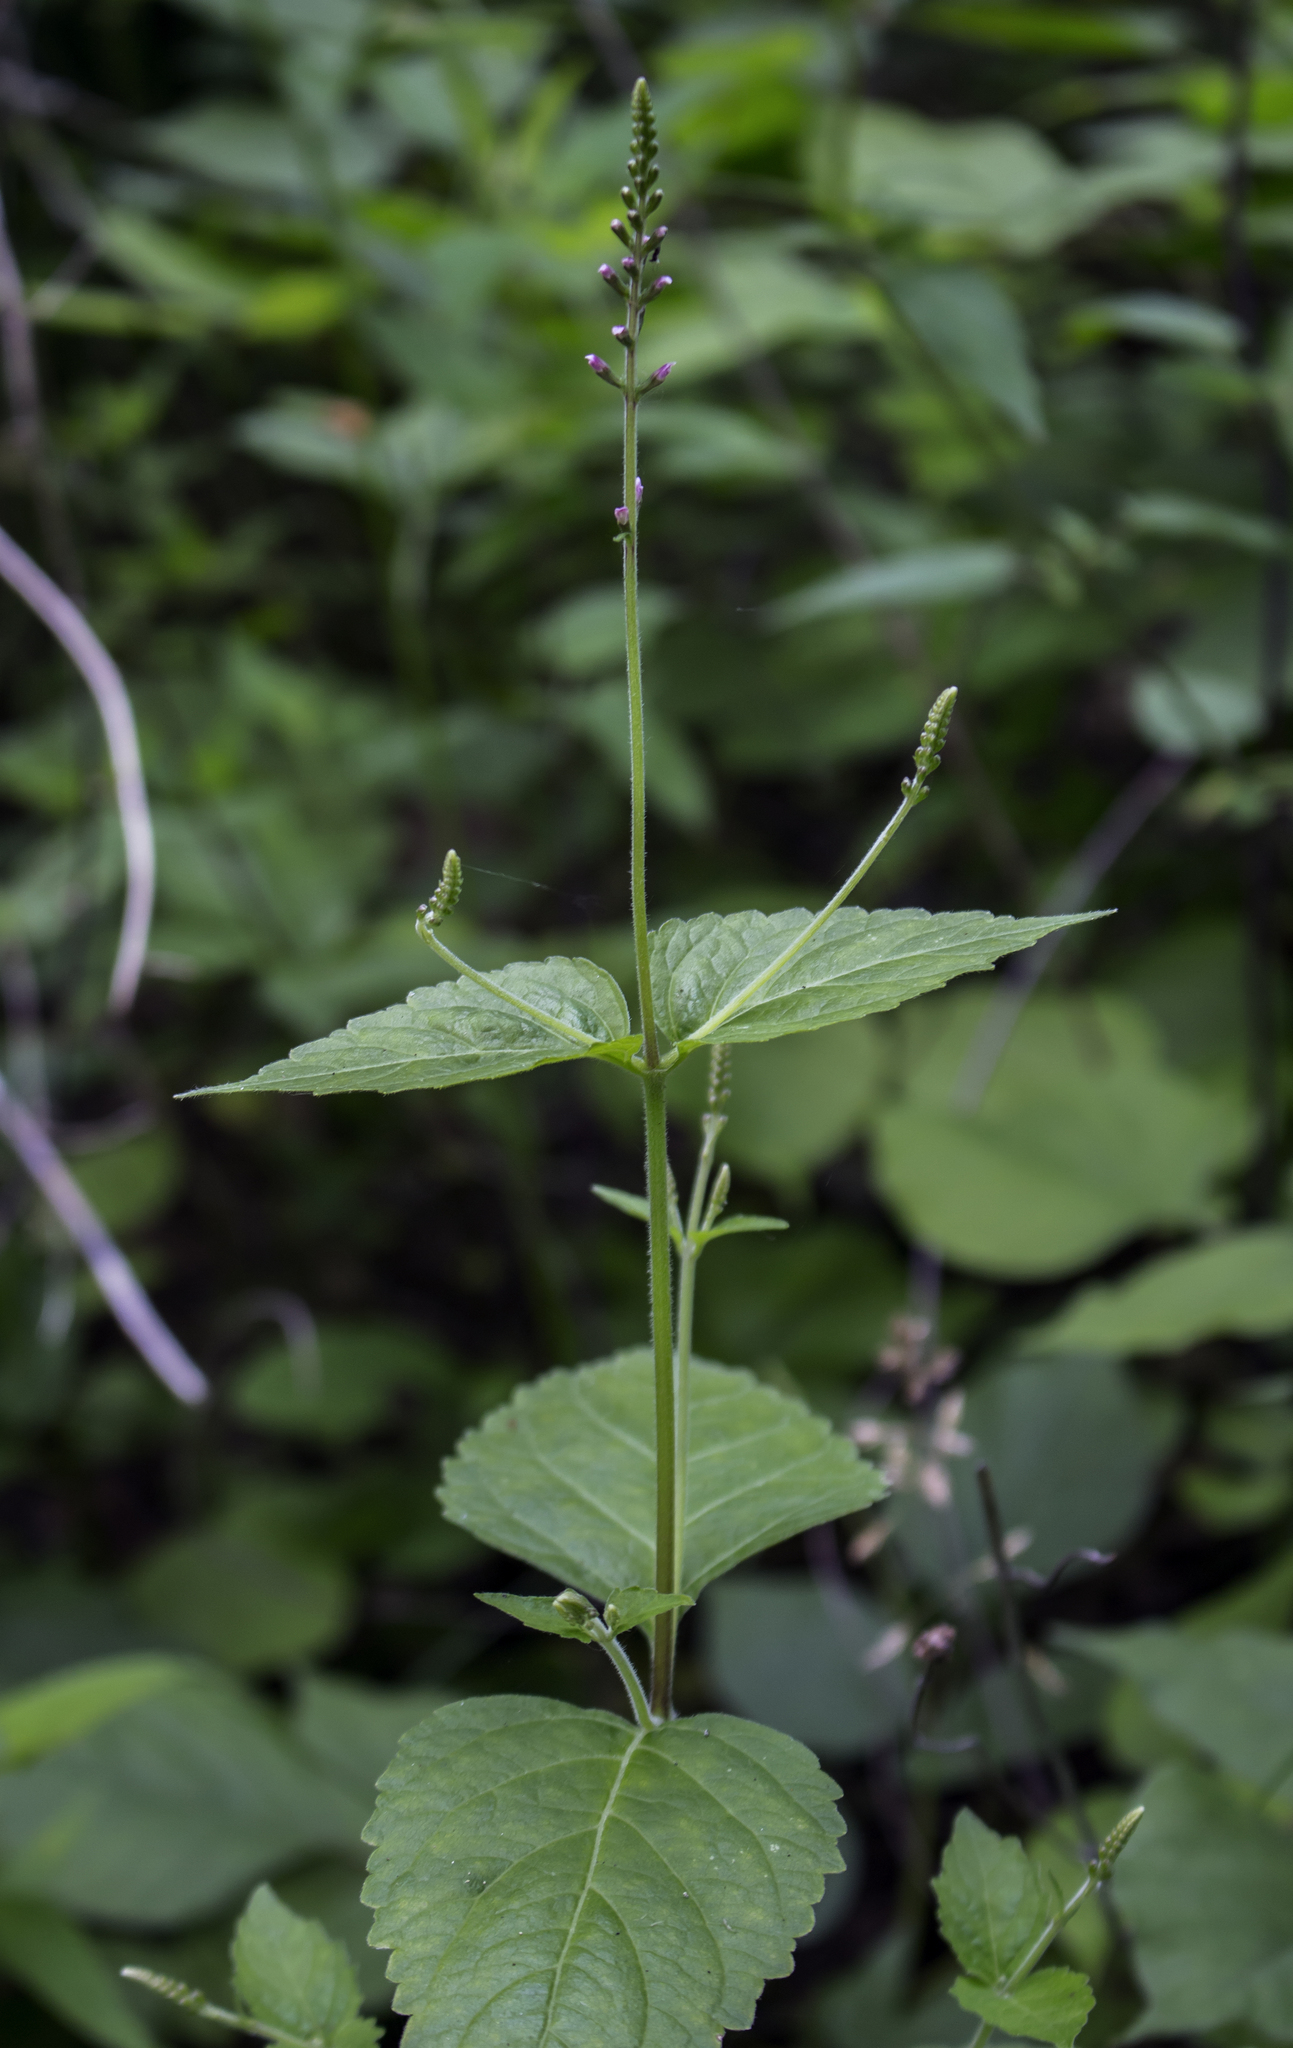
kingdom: Plantae
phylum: Tracheophyta
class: Magnoliopsida
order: Lamiales
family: Phrymaceae
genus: Phryma
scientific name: Phryma leptostachya
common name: American lopseed
